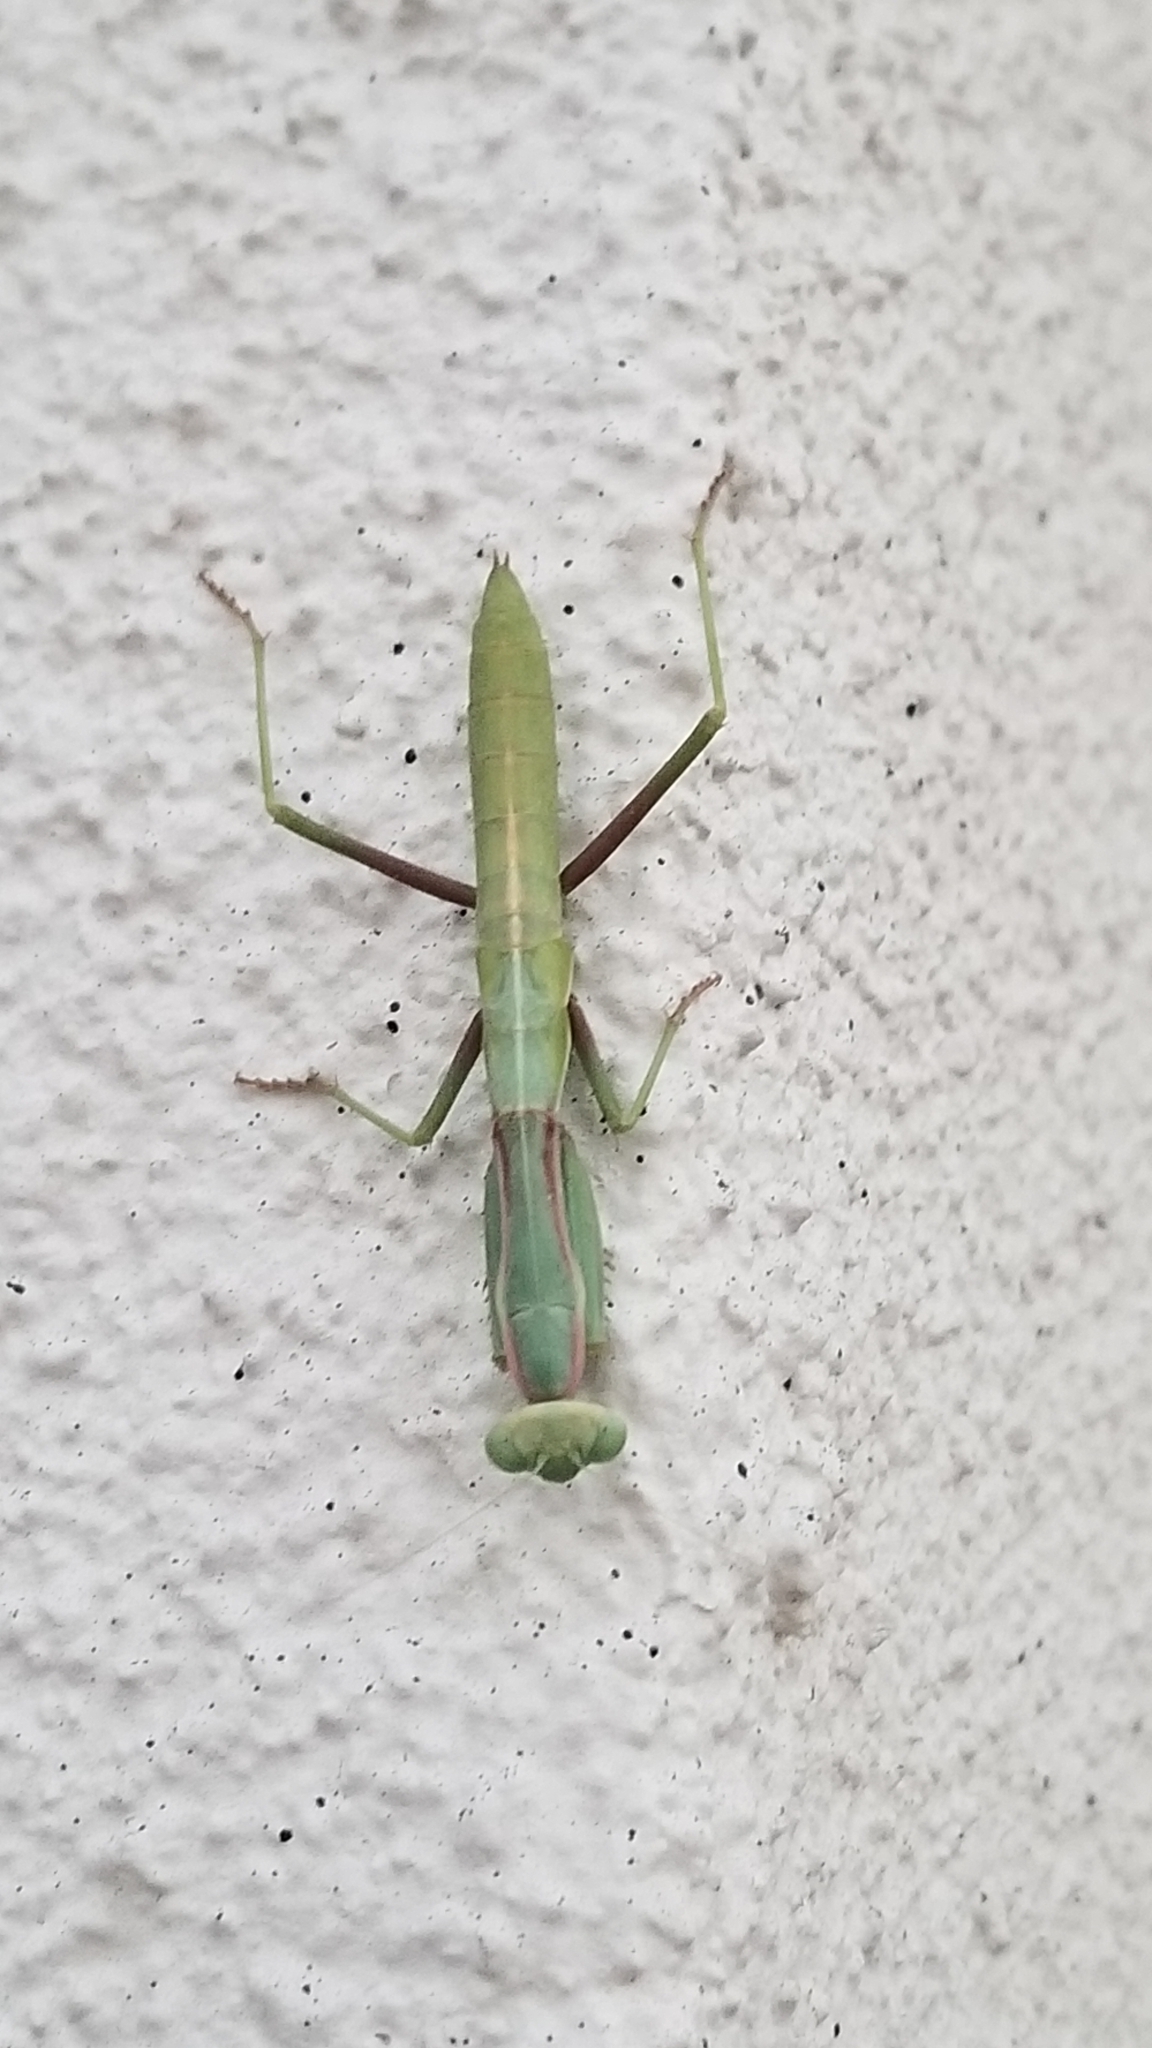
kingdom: Animalia
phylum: Arthropoda
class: Insecta
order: Mantodea
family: Eremiaphilidae
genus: Iris
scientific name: Iris oratoria
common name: Mediterranean mantis
